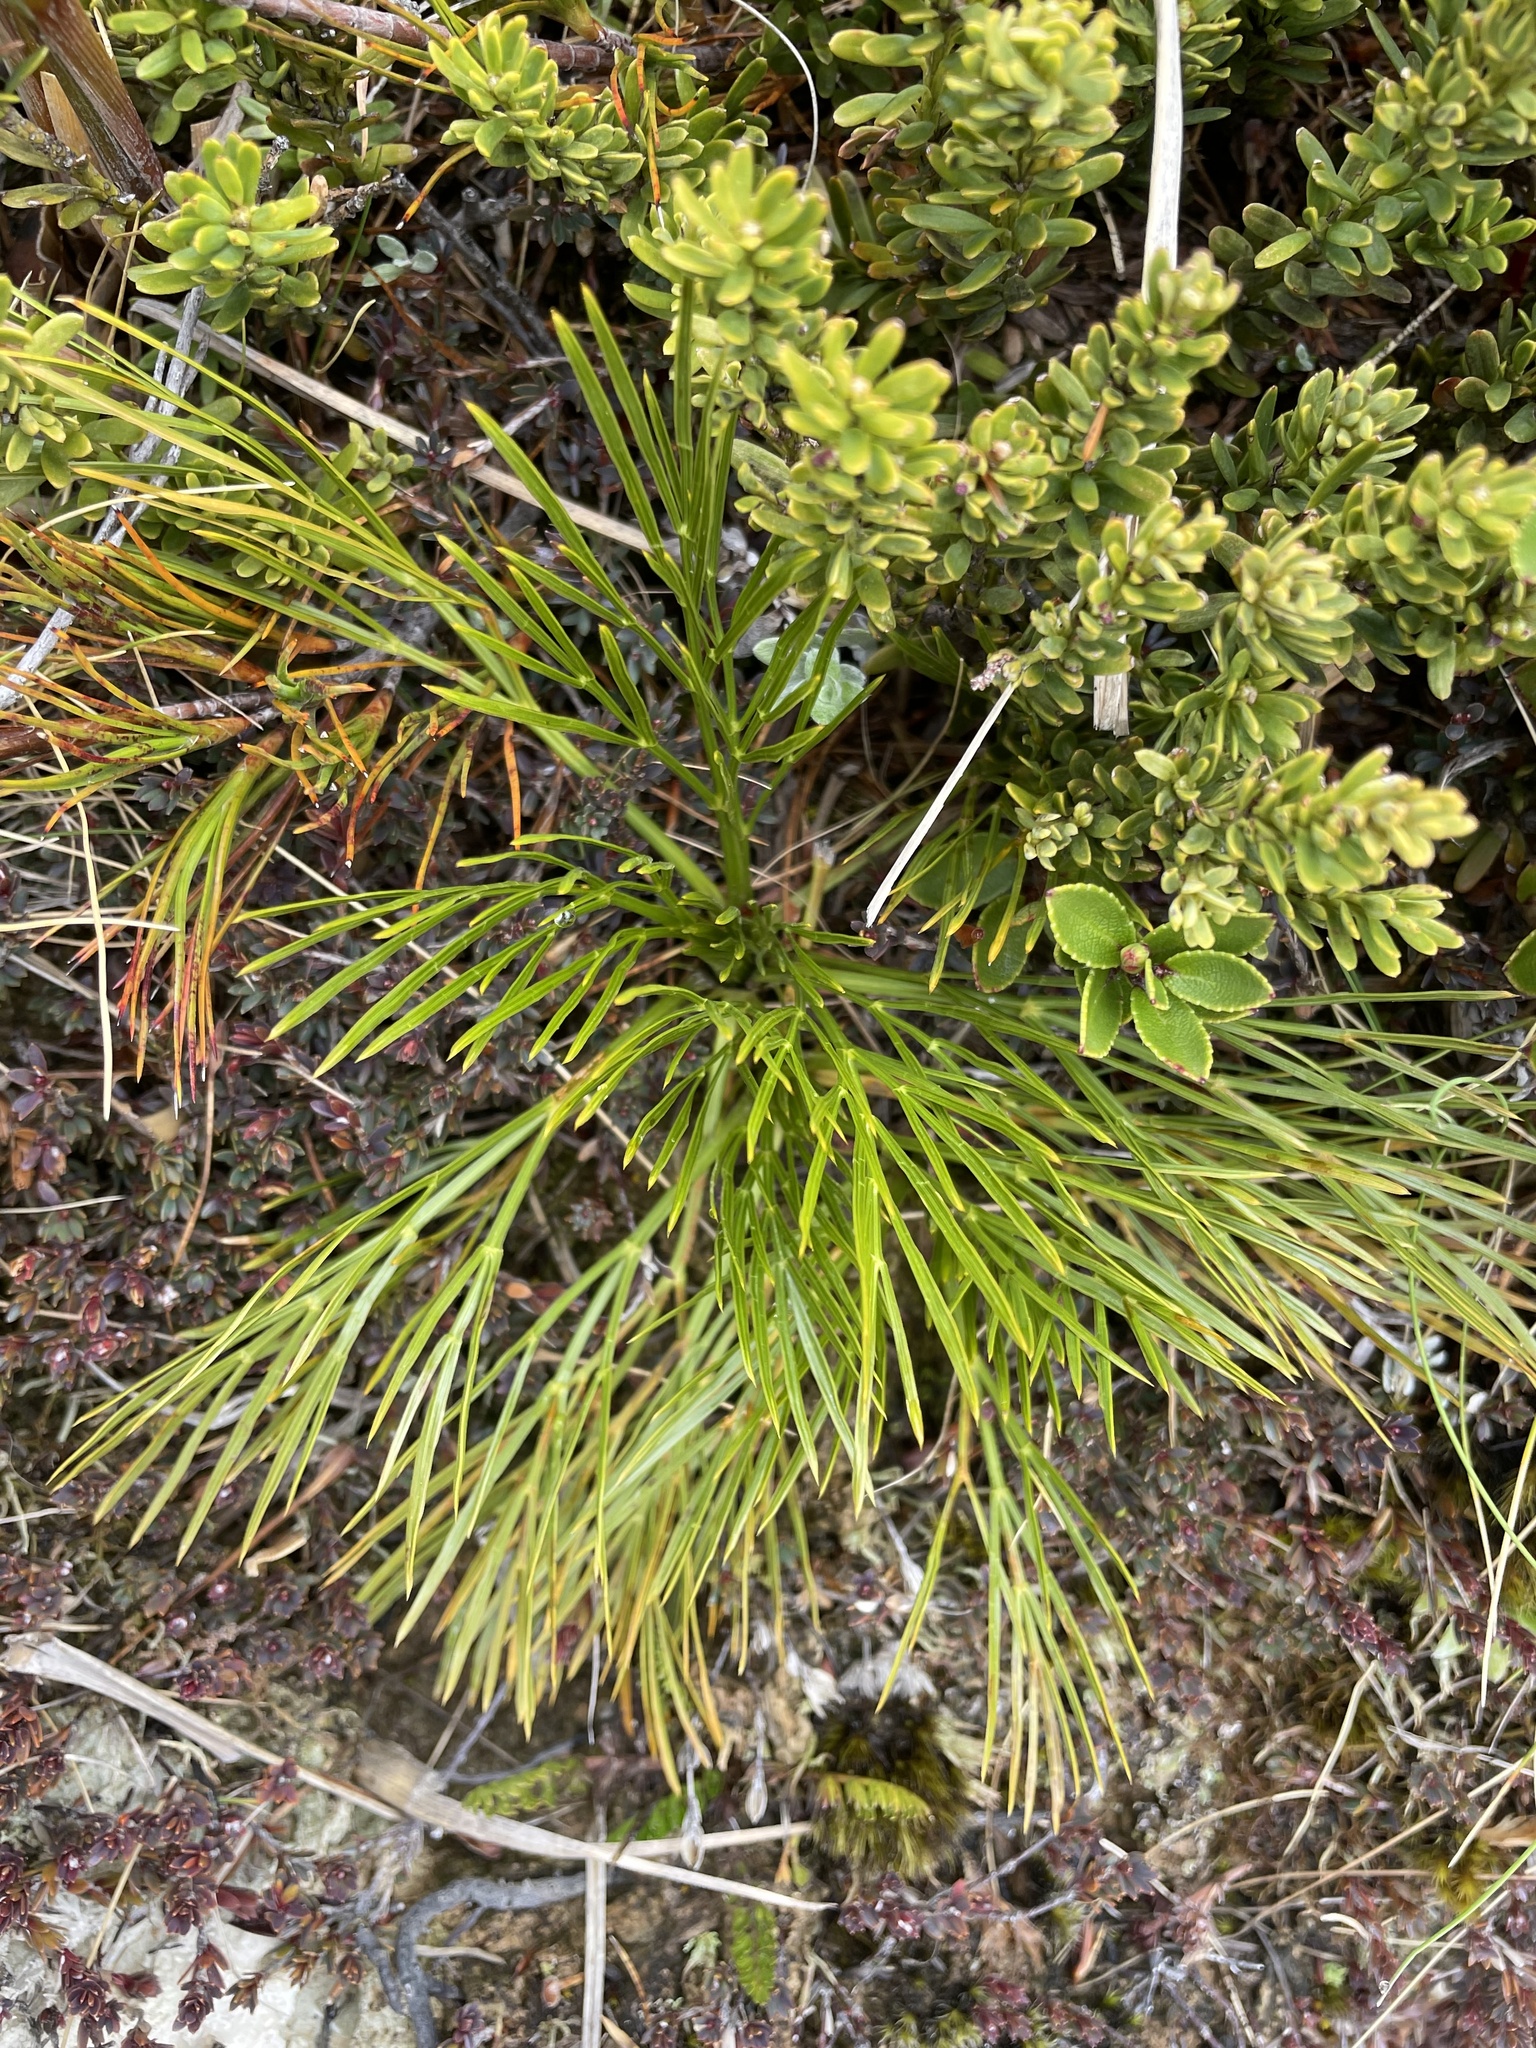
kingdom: Plantae
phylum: Tracheophyta
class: Magnoliopsida
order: Apiales
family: Apiaceae
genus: Aciphylla
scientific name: Aciphylla divisa
